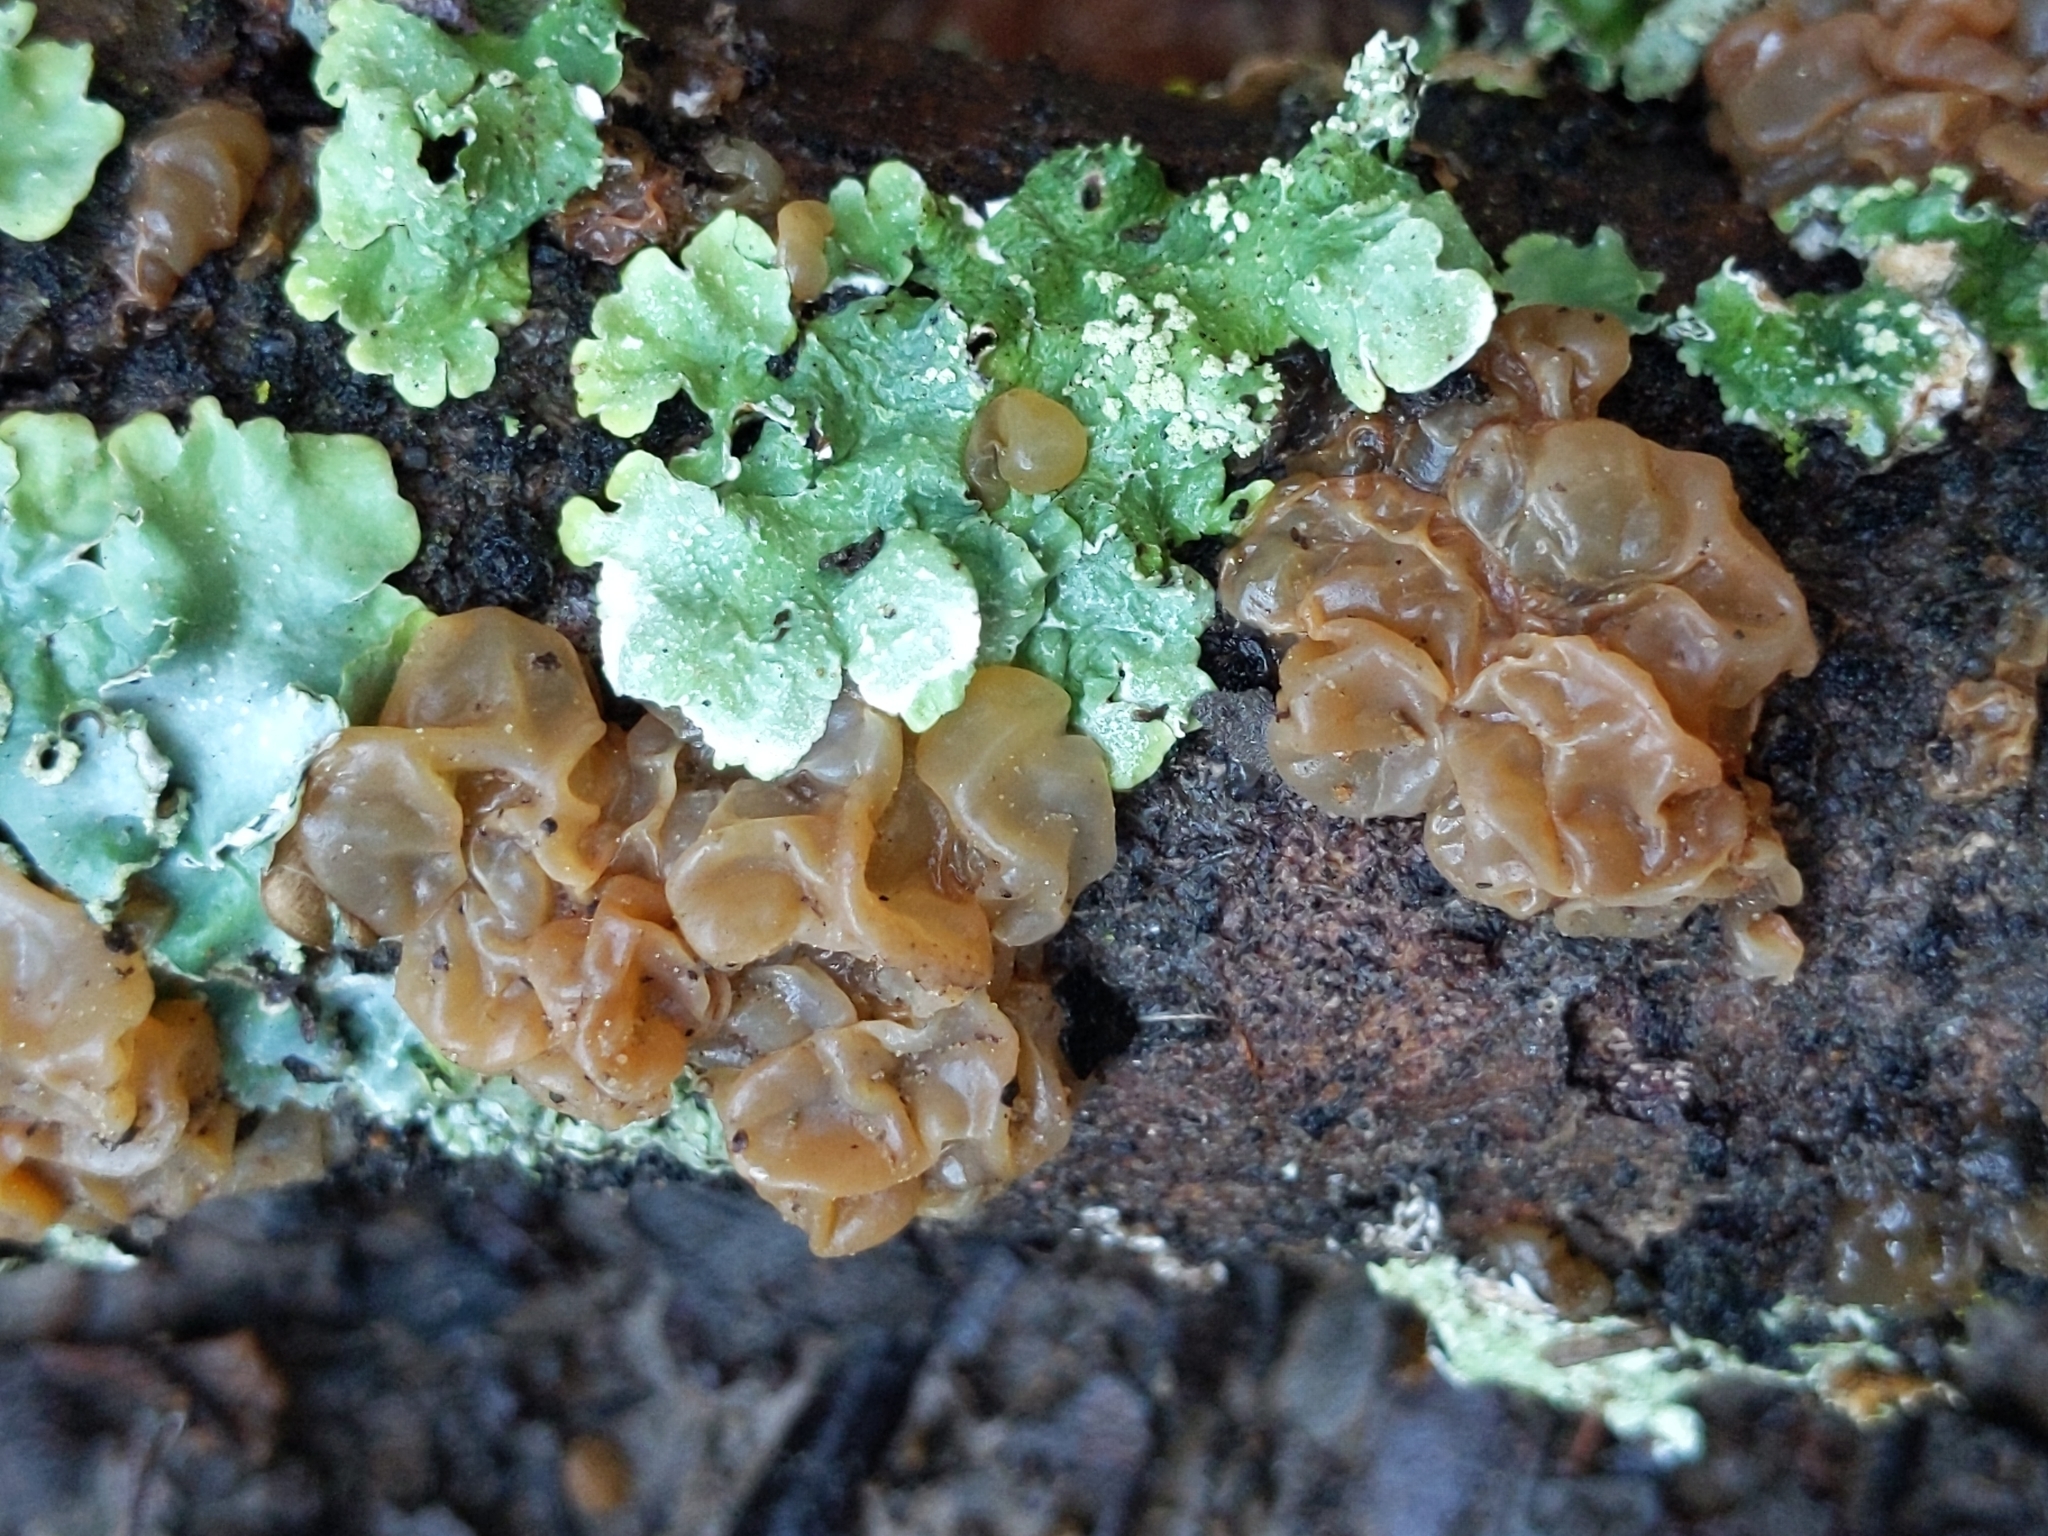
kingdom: Fungi
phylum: Basidiomycota
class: Agaricomycetes
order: Auriculariales
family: Hyaloriaceae
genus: Myxarium
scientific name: Myxarium nucleatum
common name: Crystal brain fungus
